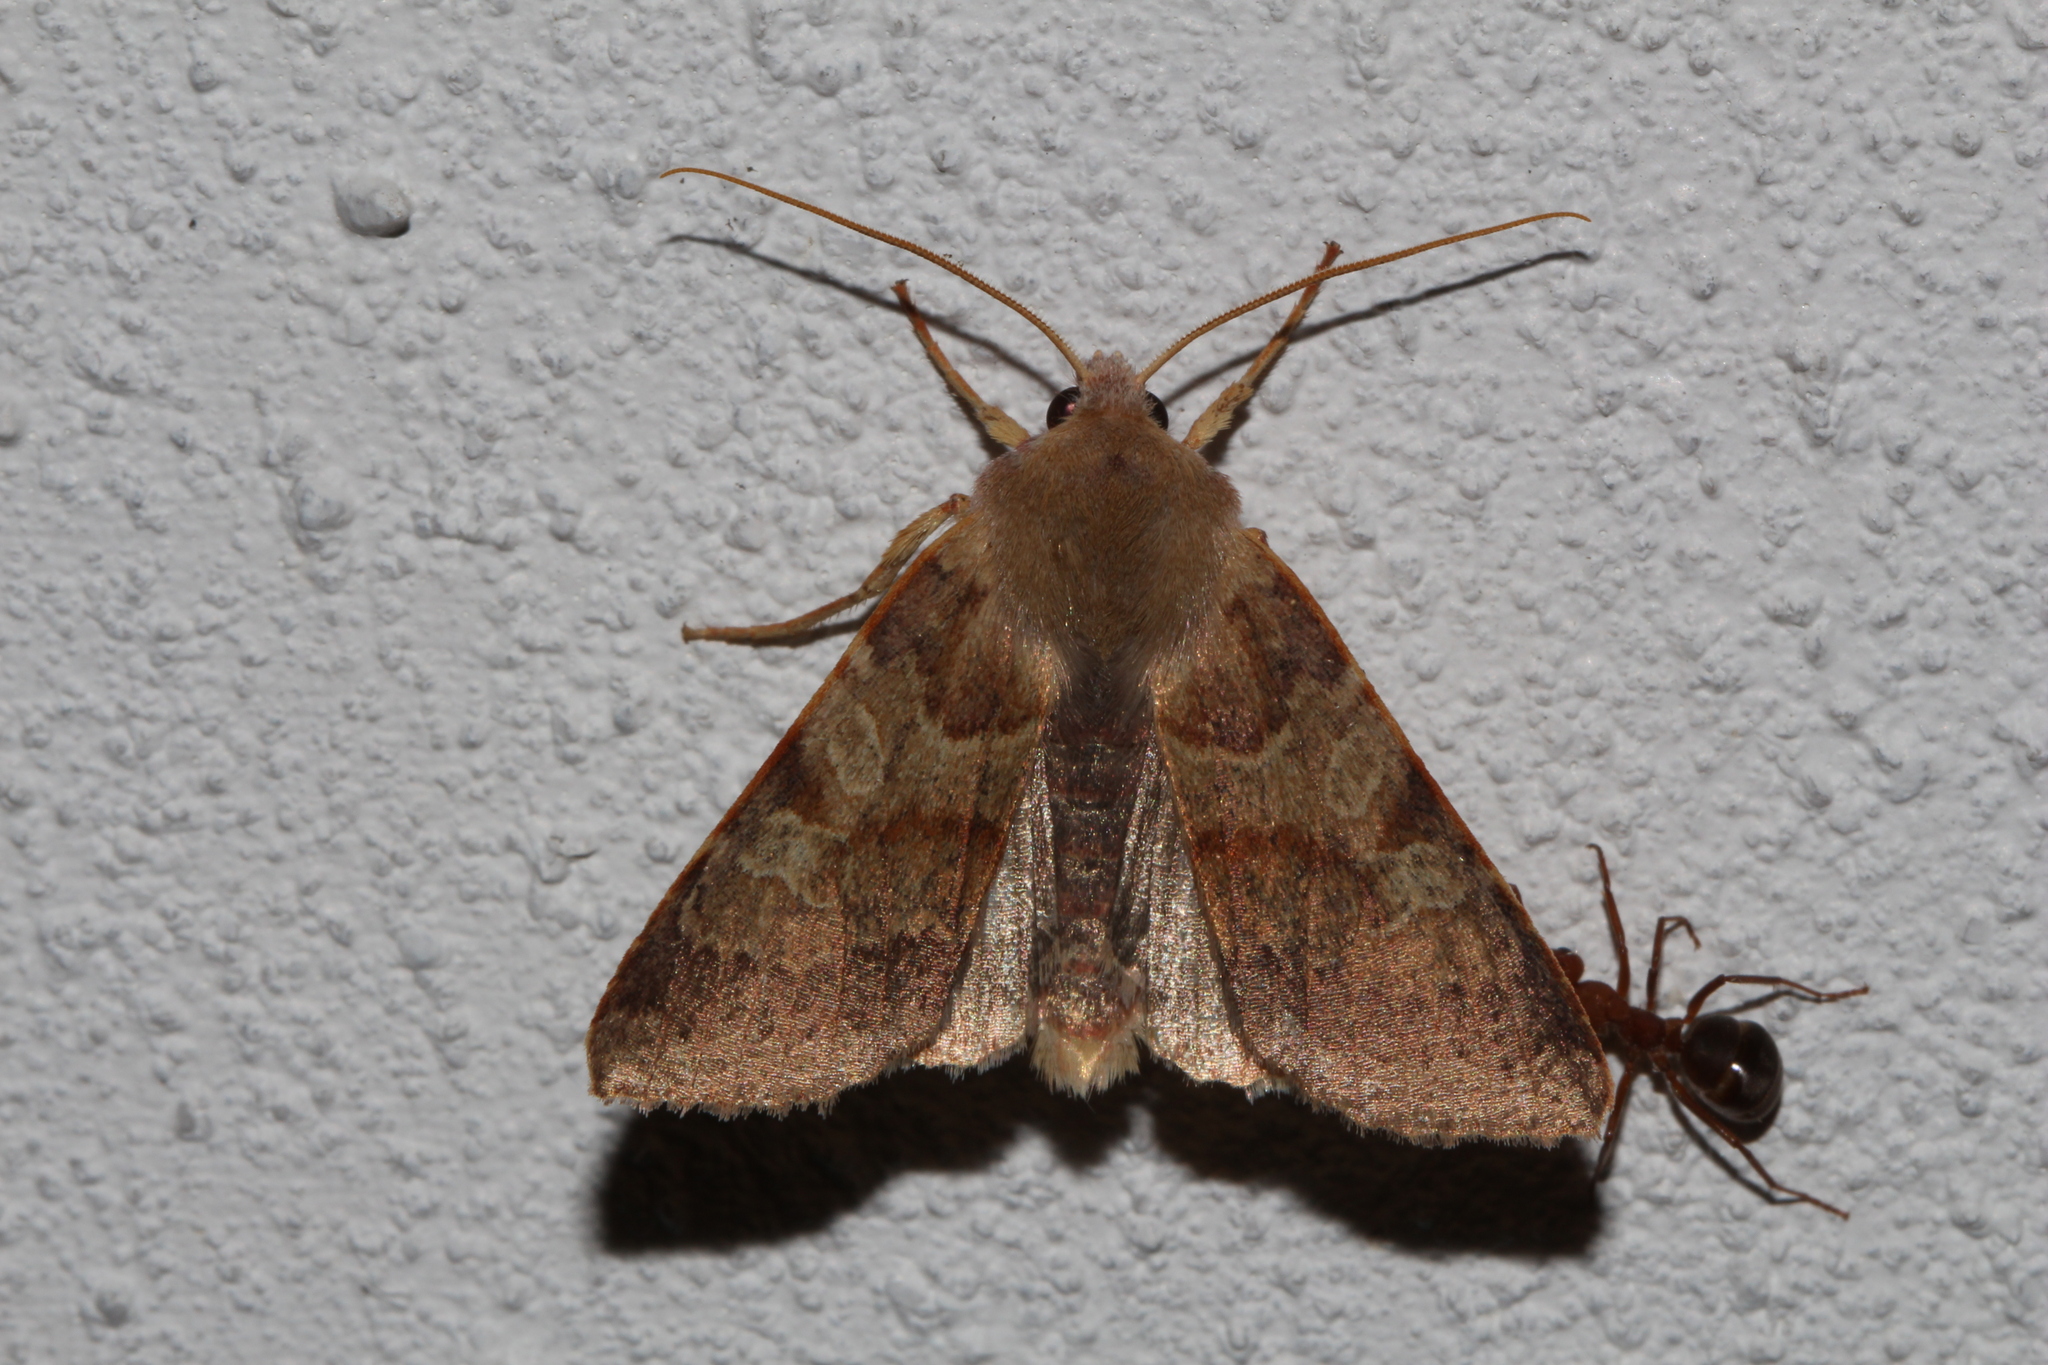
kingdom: Animalia
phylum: Arthropoda
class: Insecta
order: Lepidoptera
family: Noctuidae
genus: Agrochola
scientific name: Agrochola helvola
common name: Flounced chestnut
